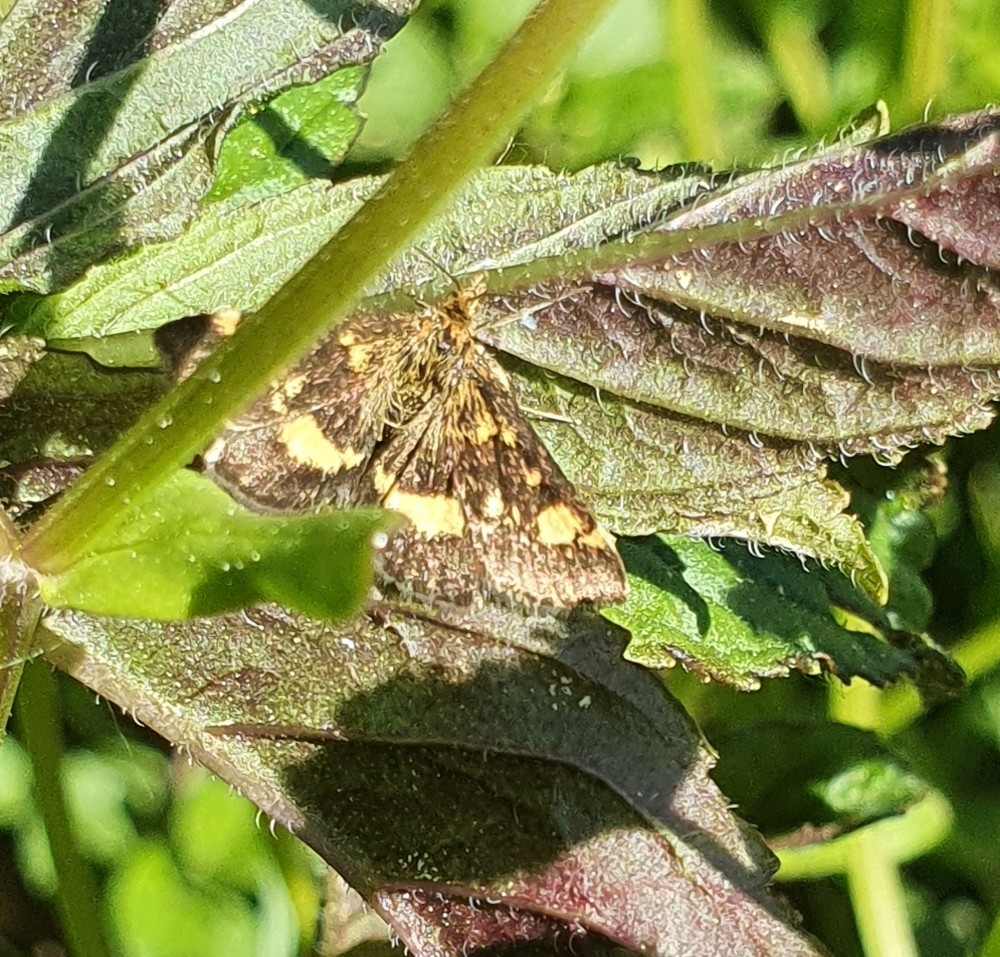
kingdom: Animalia
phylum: Arthropoda
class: Insecta
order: Lepidoptera
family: Crambidae
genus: Pyrausta
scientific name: Pyrausta aurata
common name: Small purple & gold
